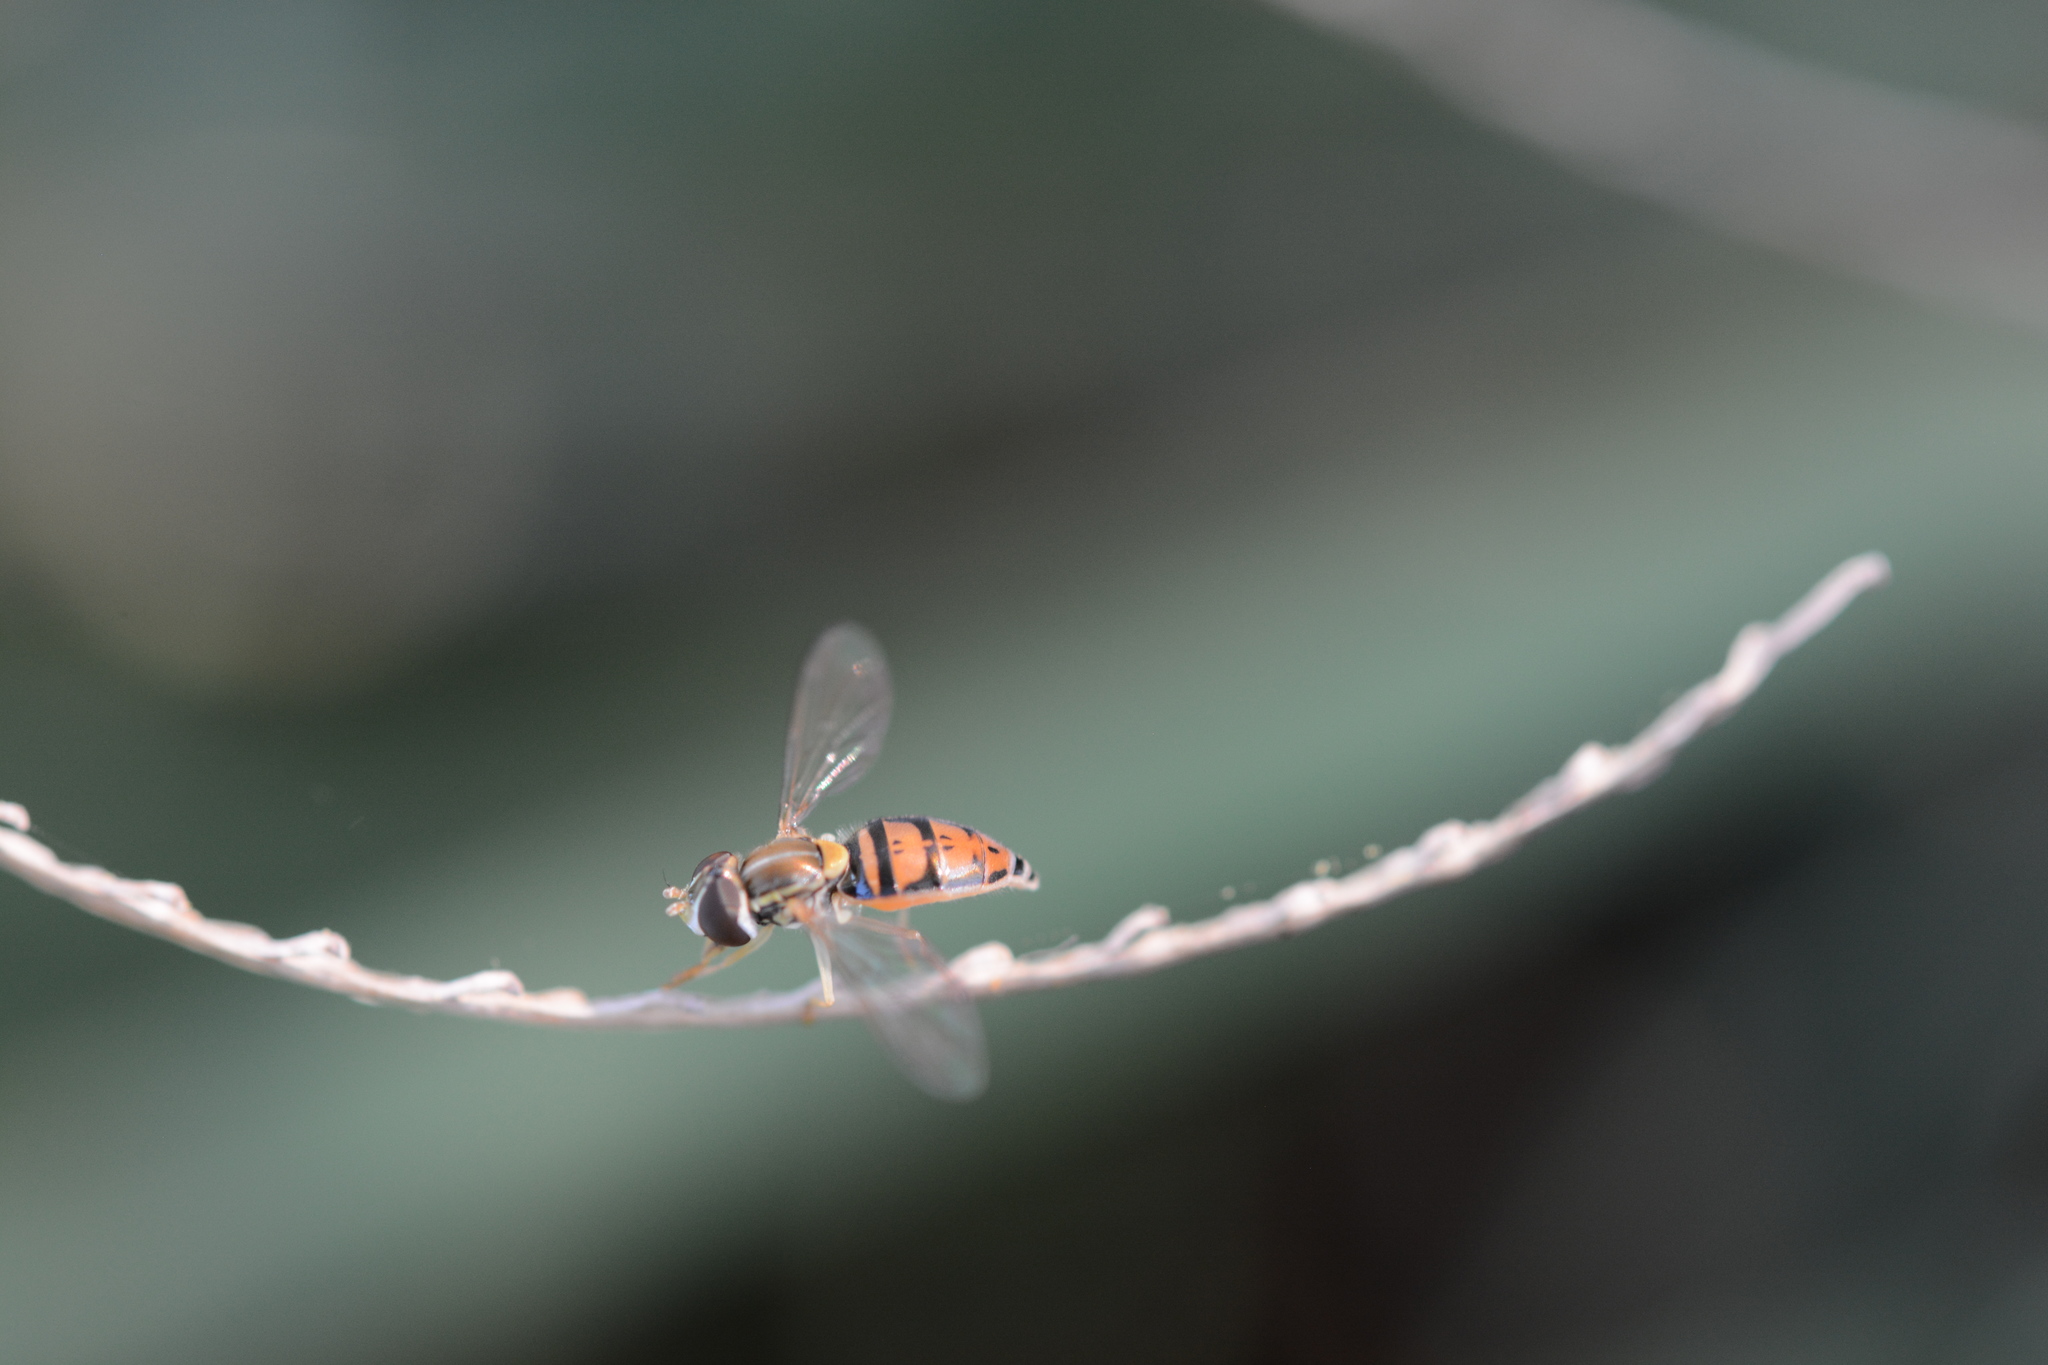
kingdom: Animalia
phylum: Arthropoda
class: Insecta
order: Diptera
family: Syrphidae
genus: Toxomerus
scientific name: Toxomerus marginatus
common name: Syrphid fly
